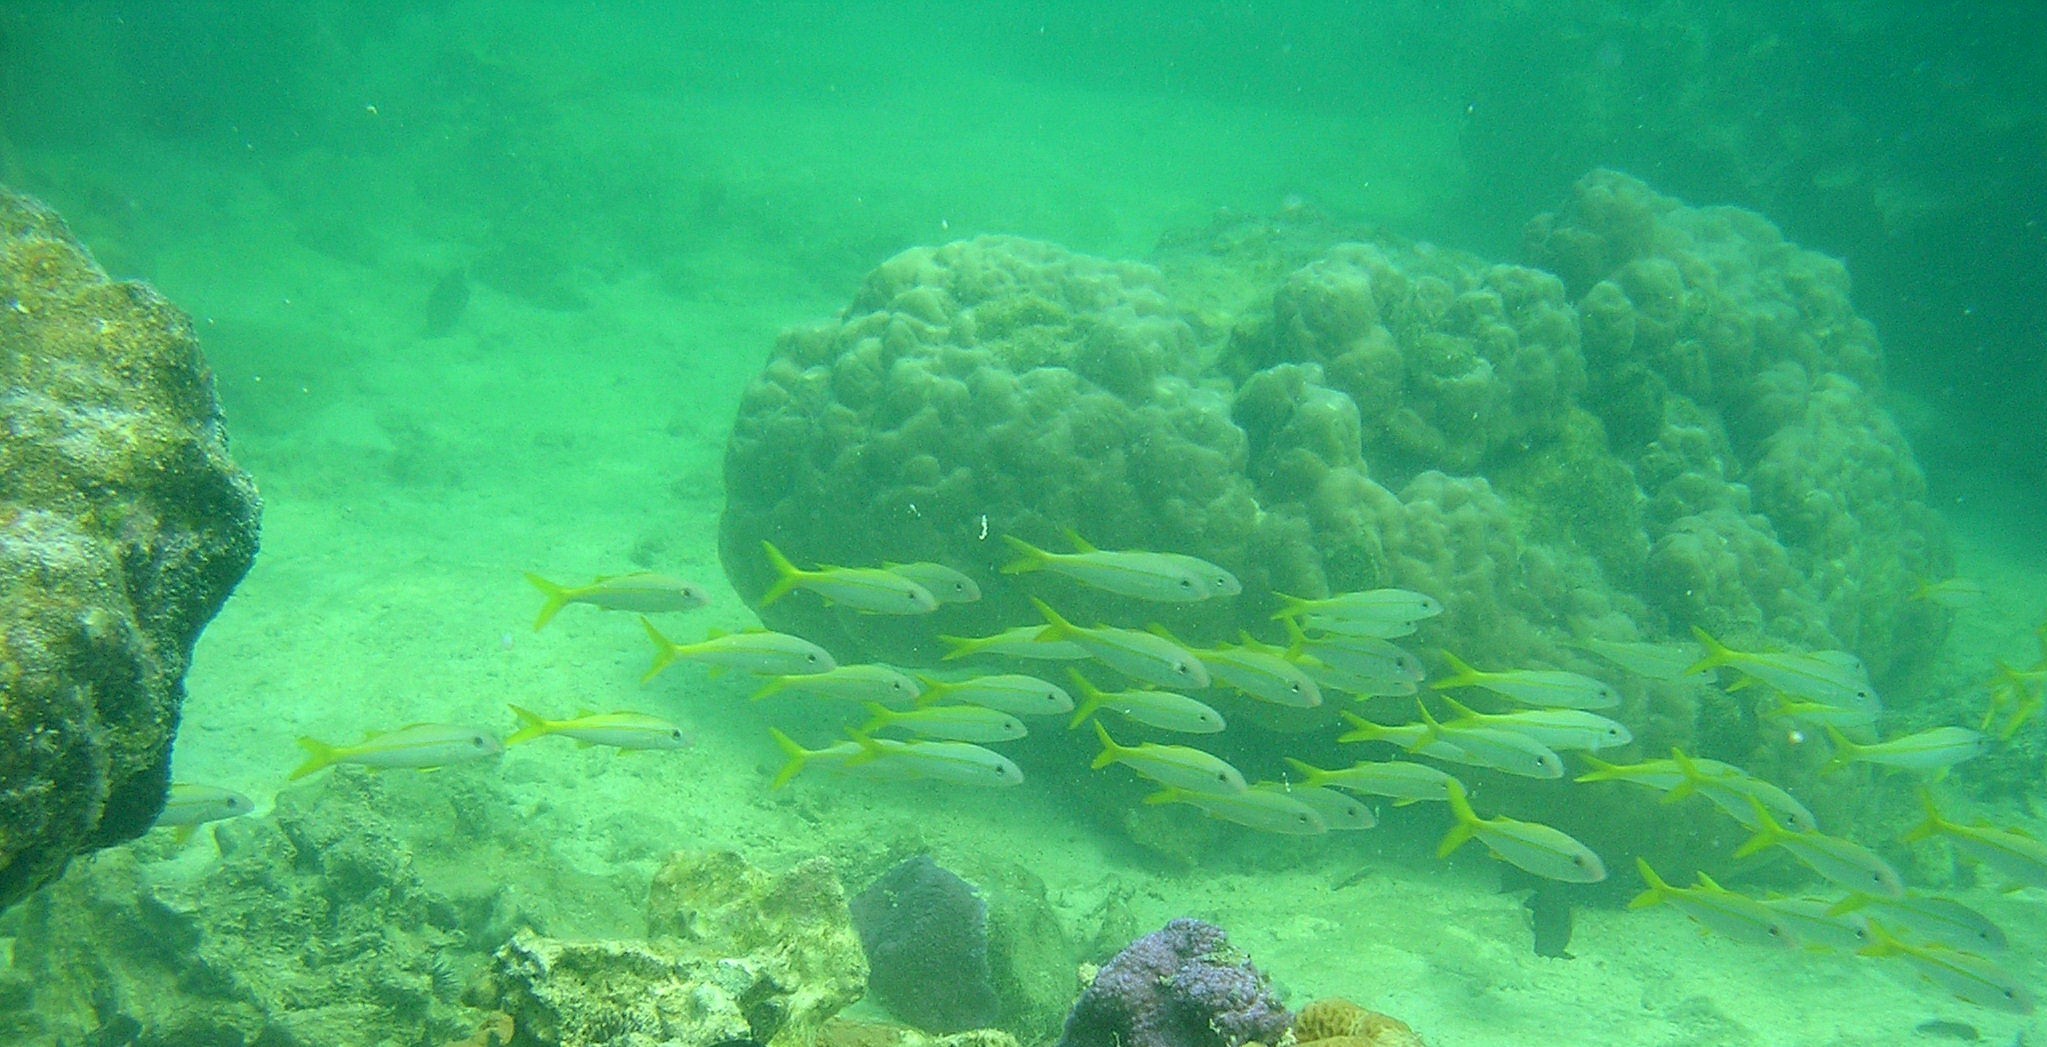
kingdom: Animalia
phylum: Chordata
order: Perciformes
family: Mullidae
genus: Mulloidichthys
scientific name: Mulloidichthys vanicolensis
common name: Yellowfin goatfish
